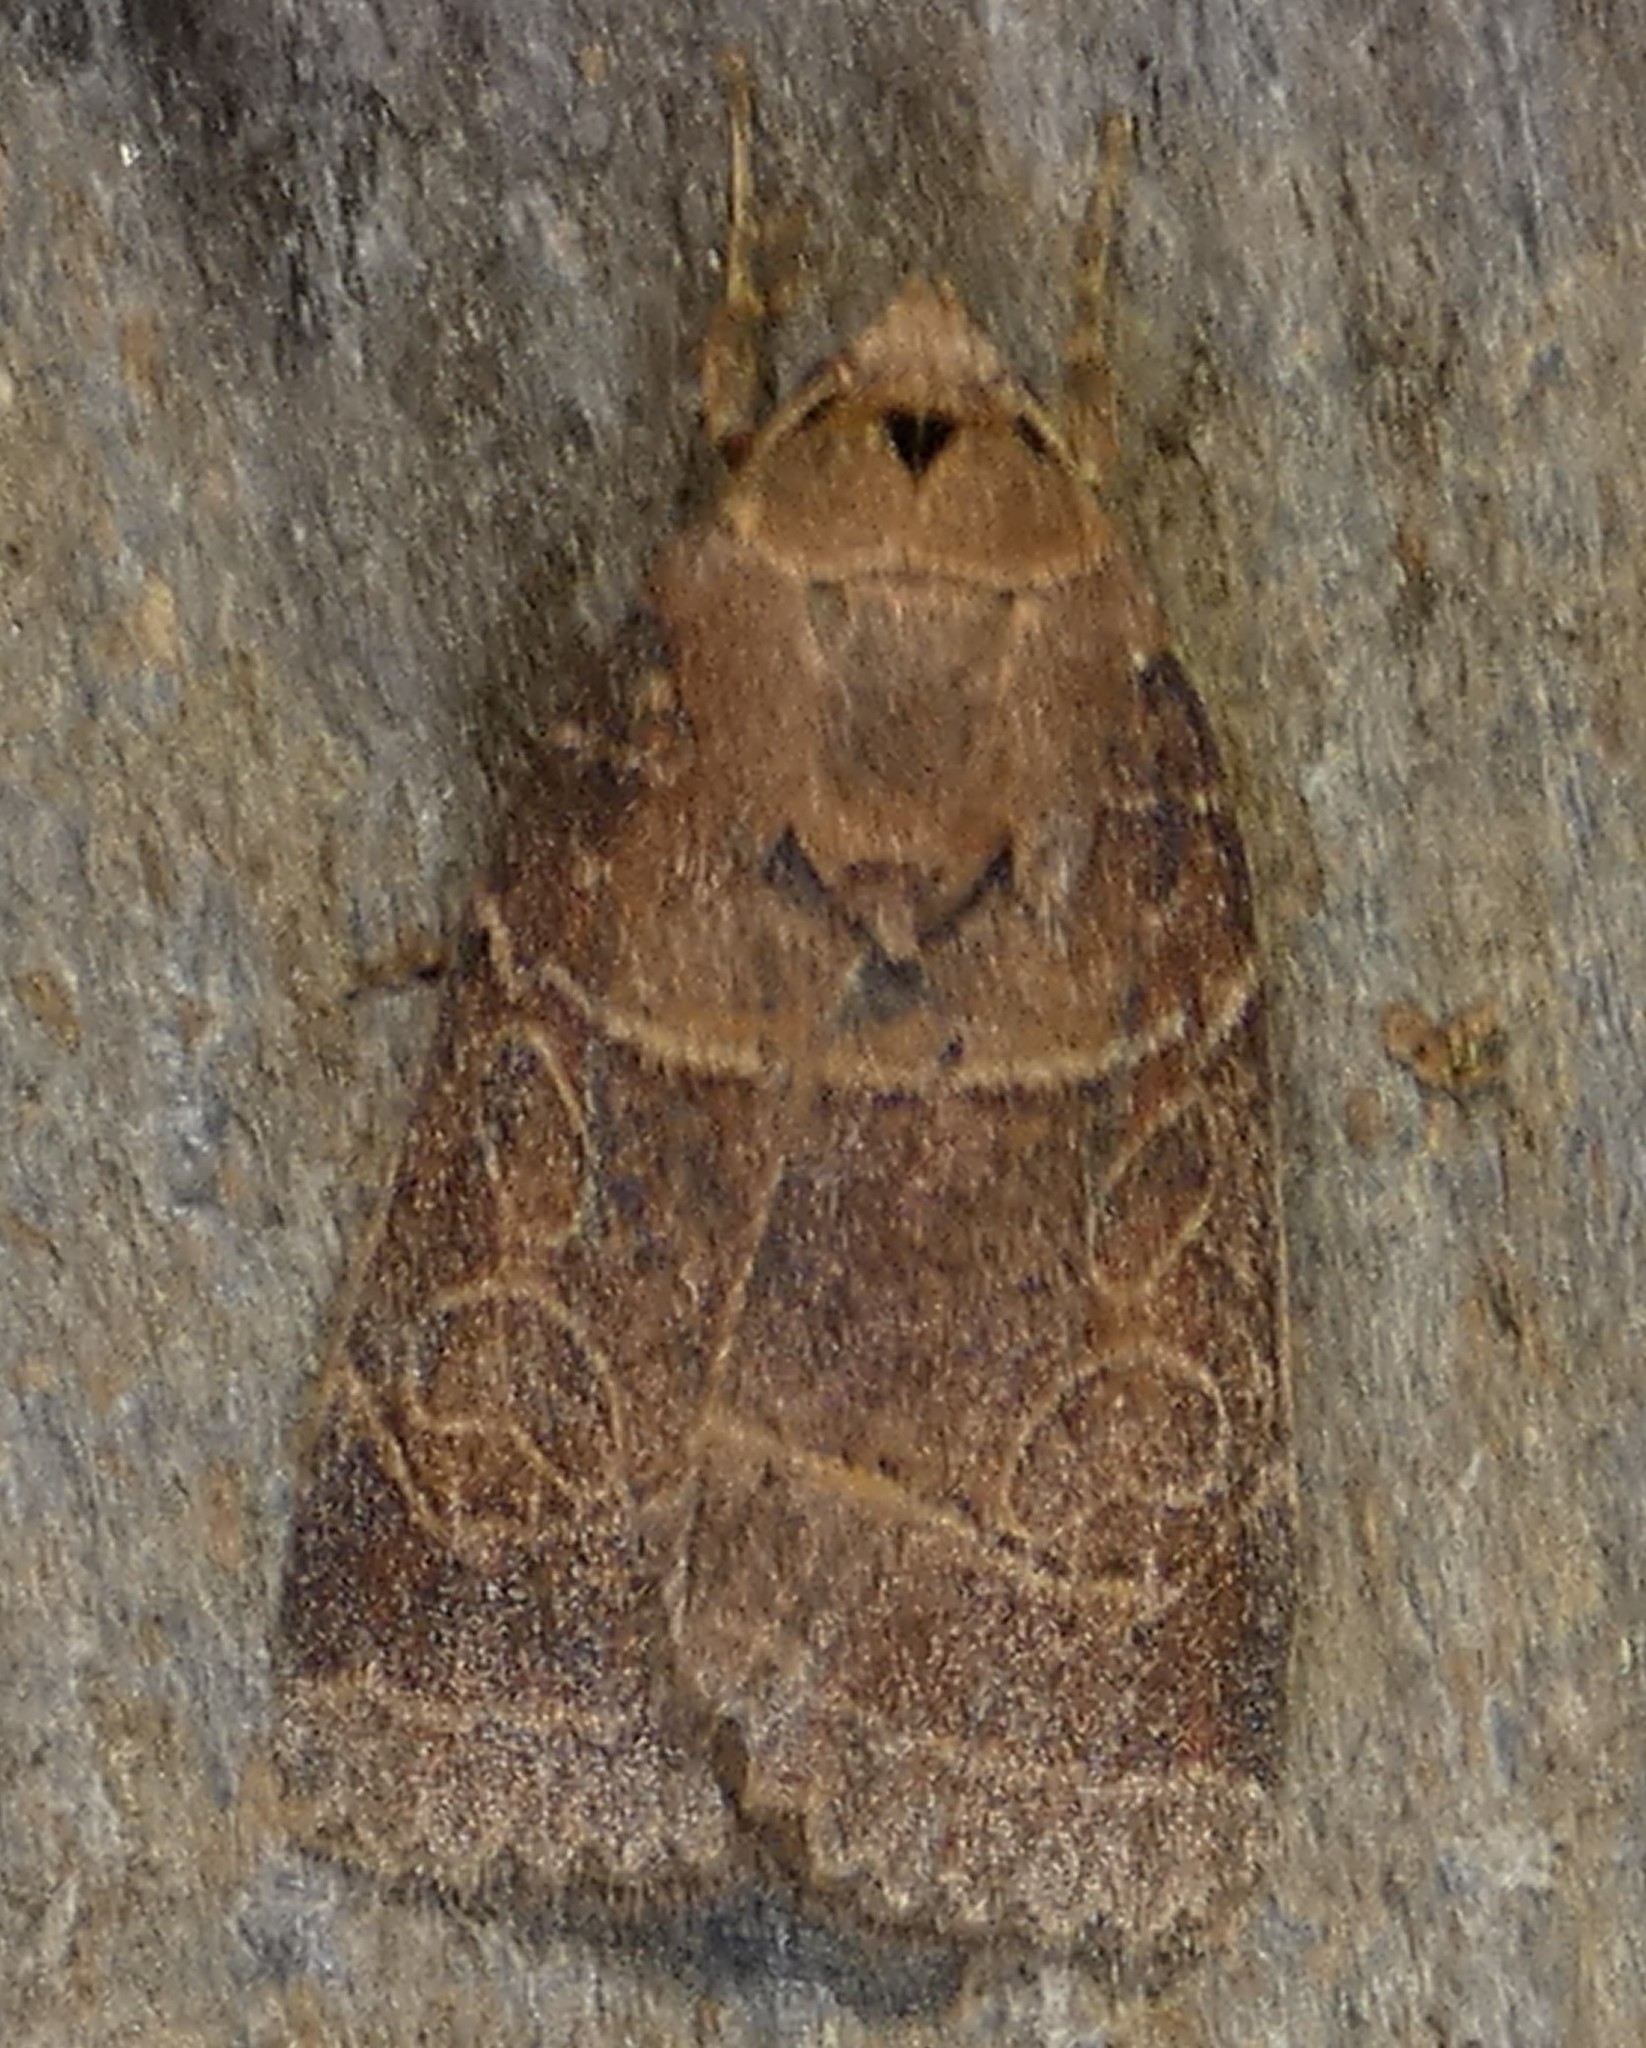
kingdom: Animalia
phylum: Arthropoda
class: Insecta
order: Lepidoptera
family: Noctuidae
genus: Orthodes
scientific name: Orthodes majuscula
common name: Rustic quaker
